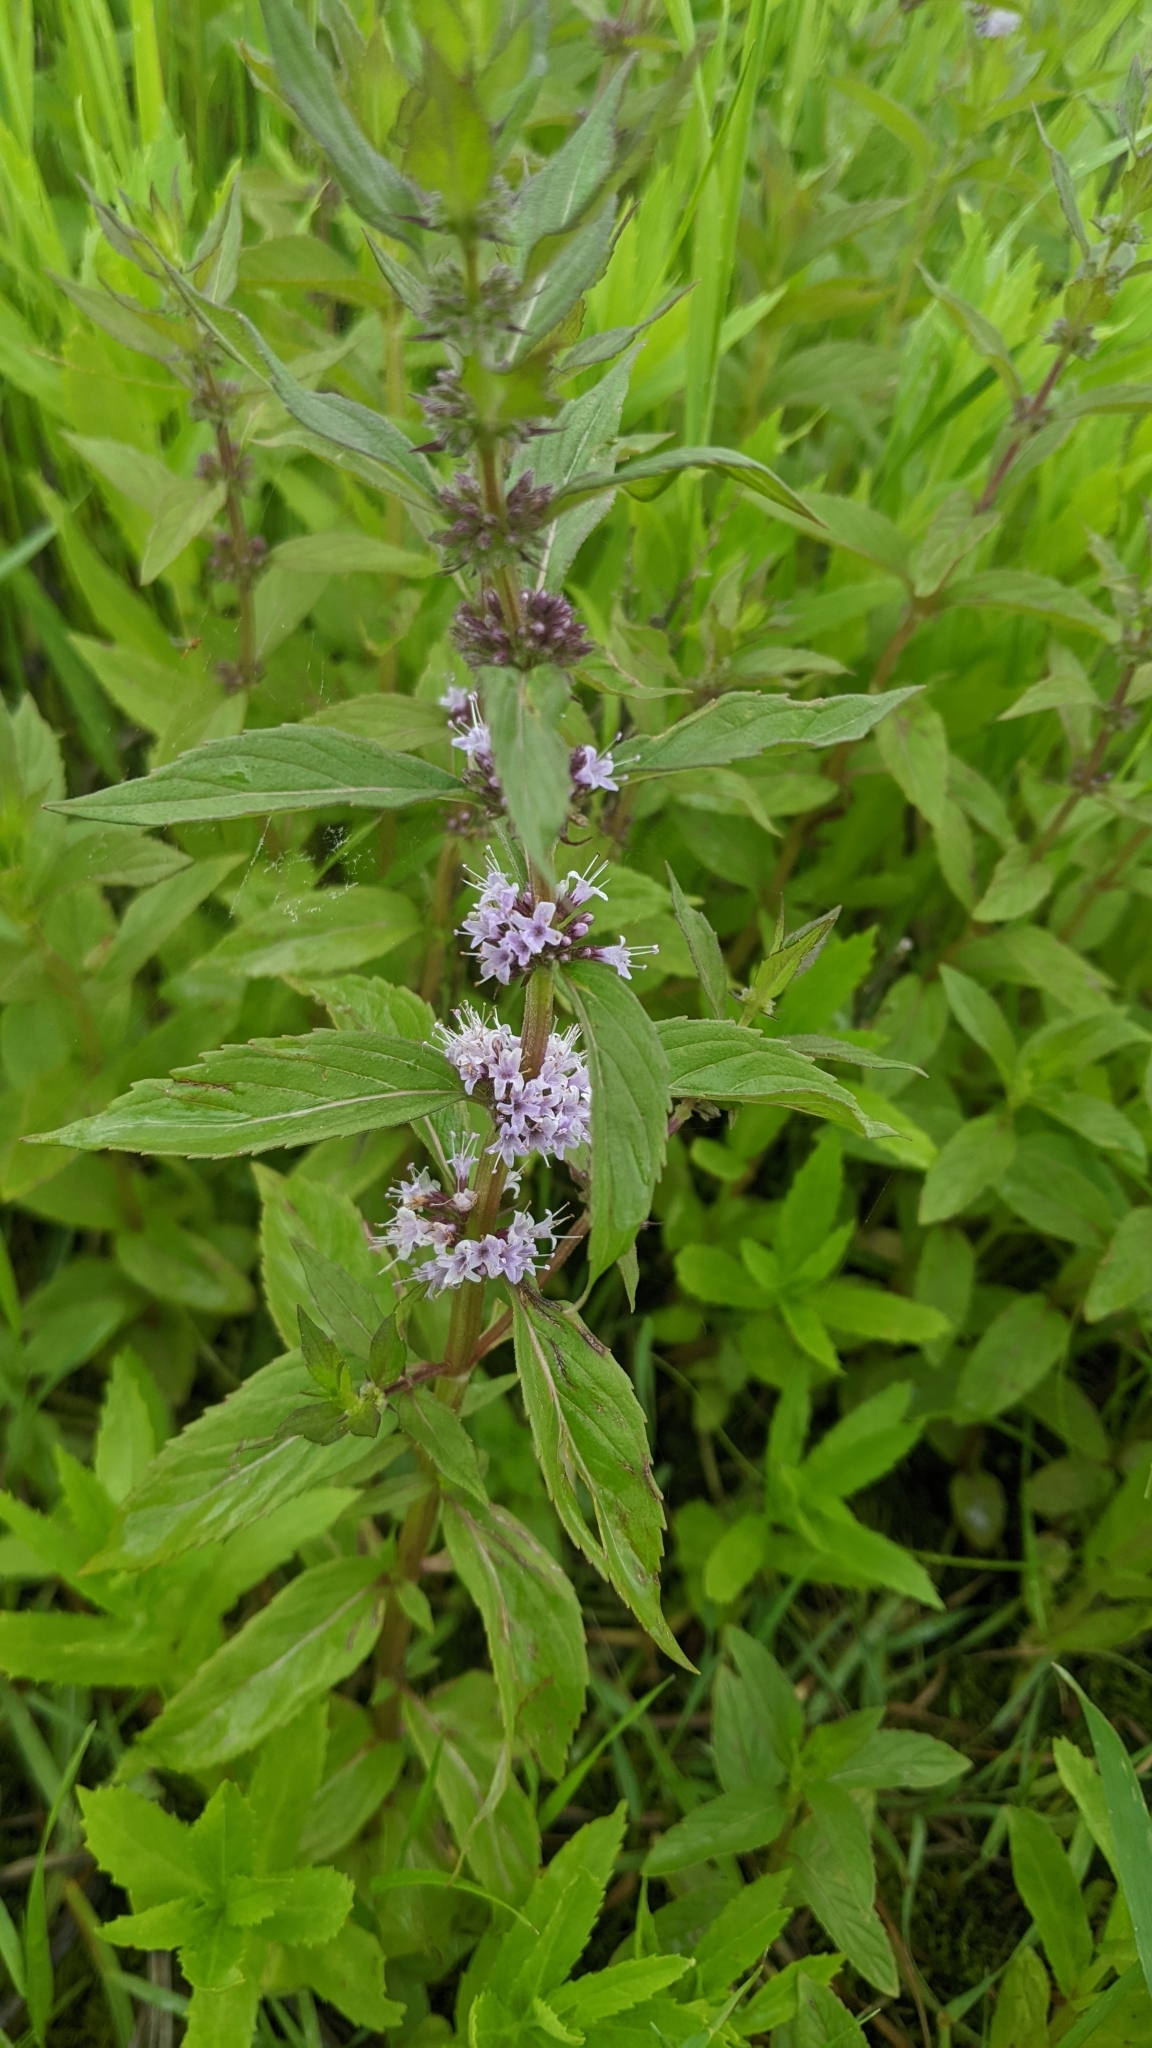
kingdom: Plantae
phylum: Tracheophyta
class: Magnoliopsida
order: Lamiales
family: Lamiaceae
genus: Mentha
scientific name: Mentha canadensis
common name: American corn mint
